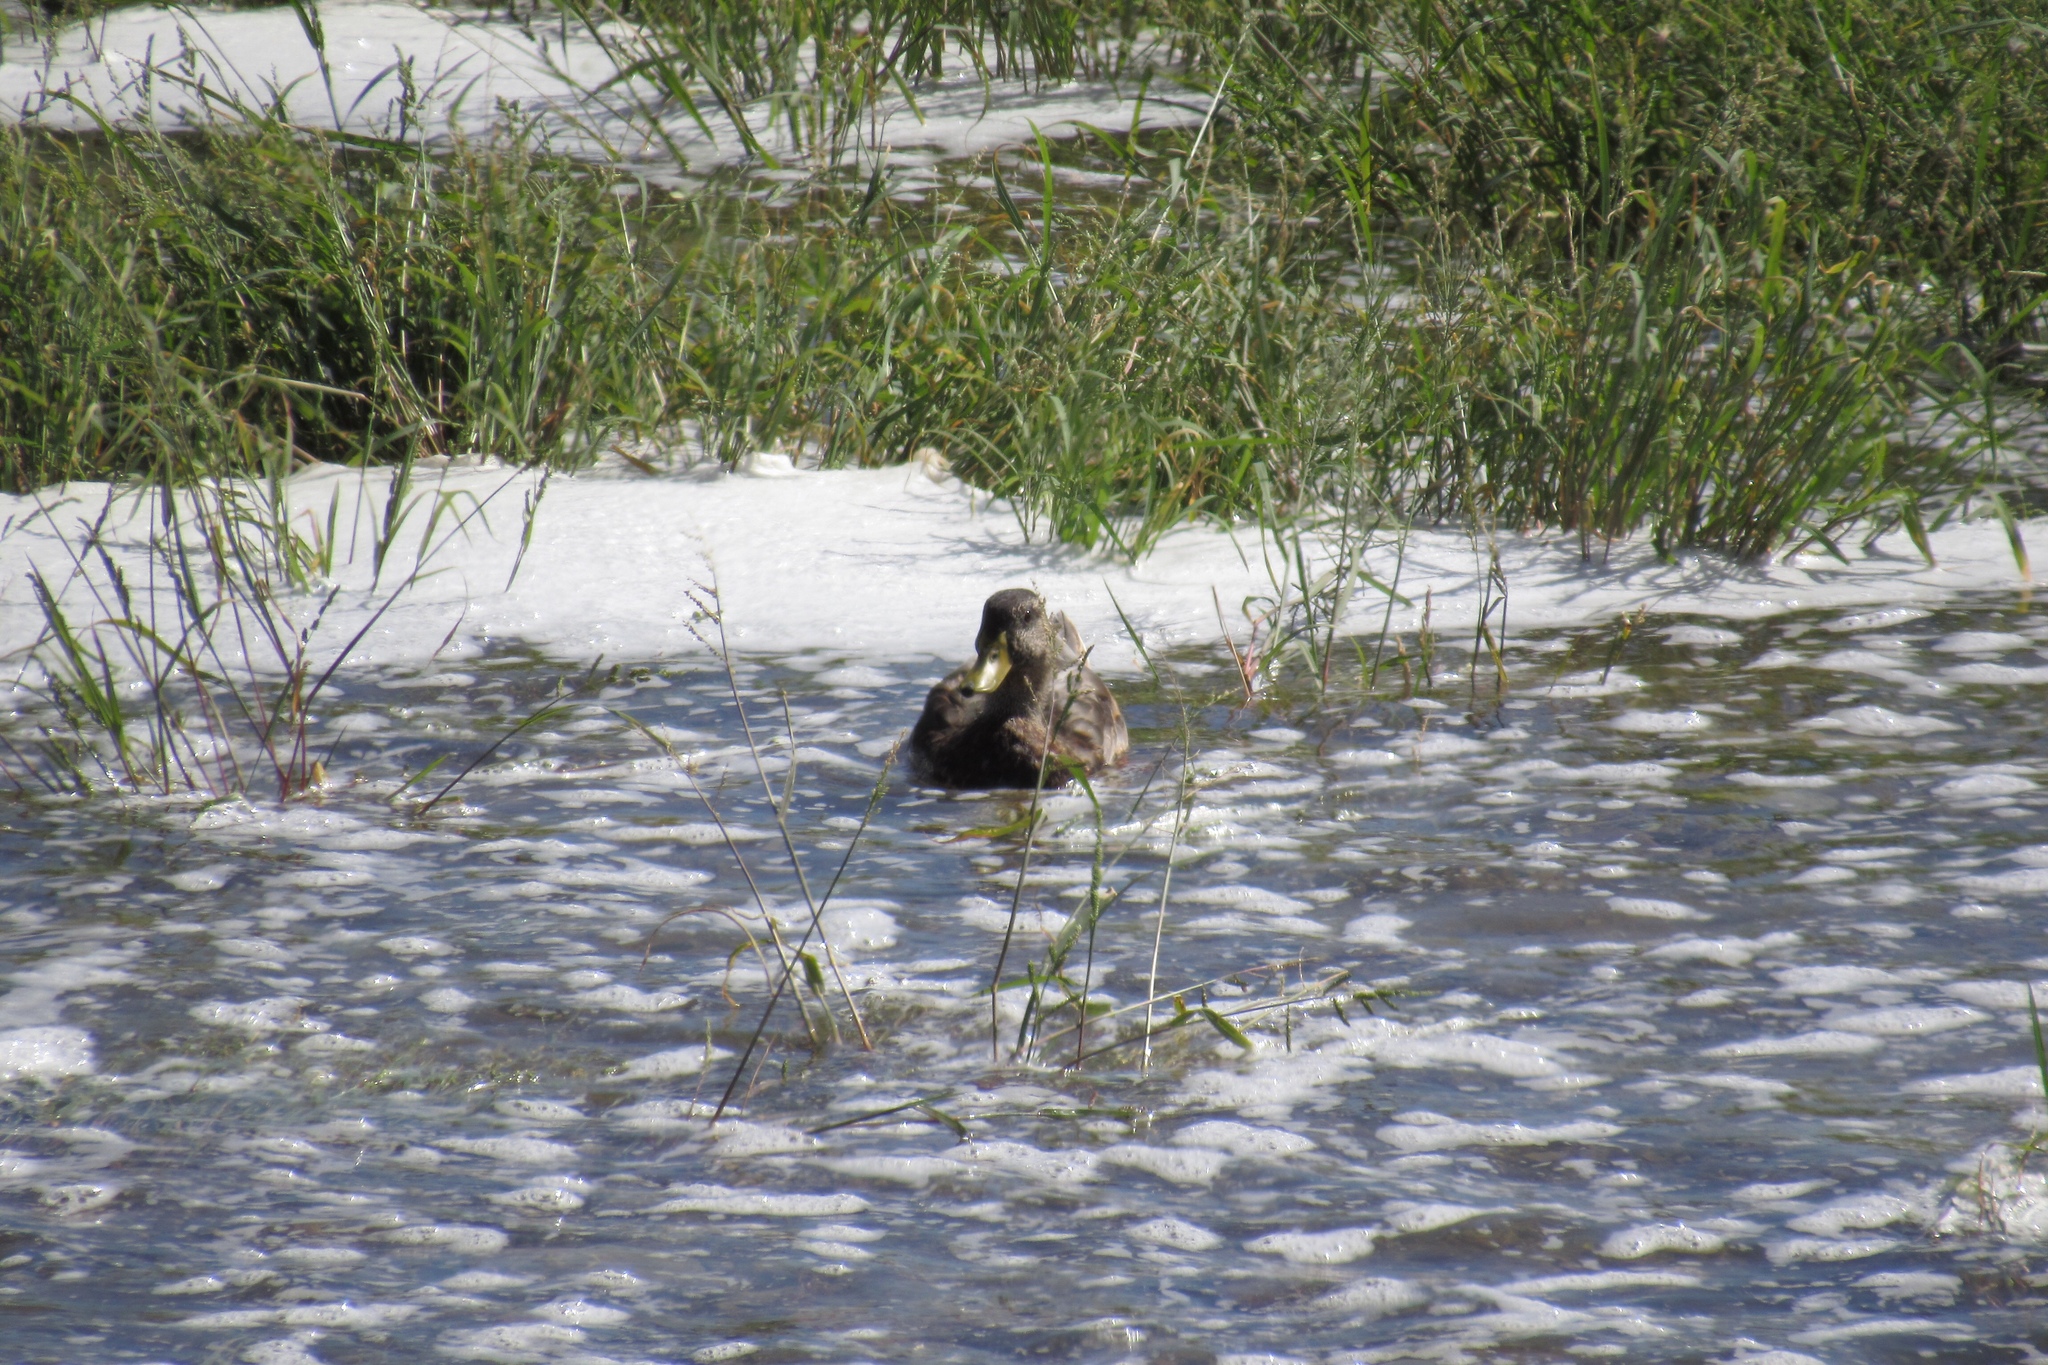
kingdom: Animalia
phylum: Chordata
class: Aves
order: Anseriformes
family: Anatidae
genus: Anas
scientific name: Anas platyrhynchos
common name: Mallard
